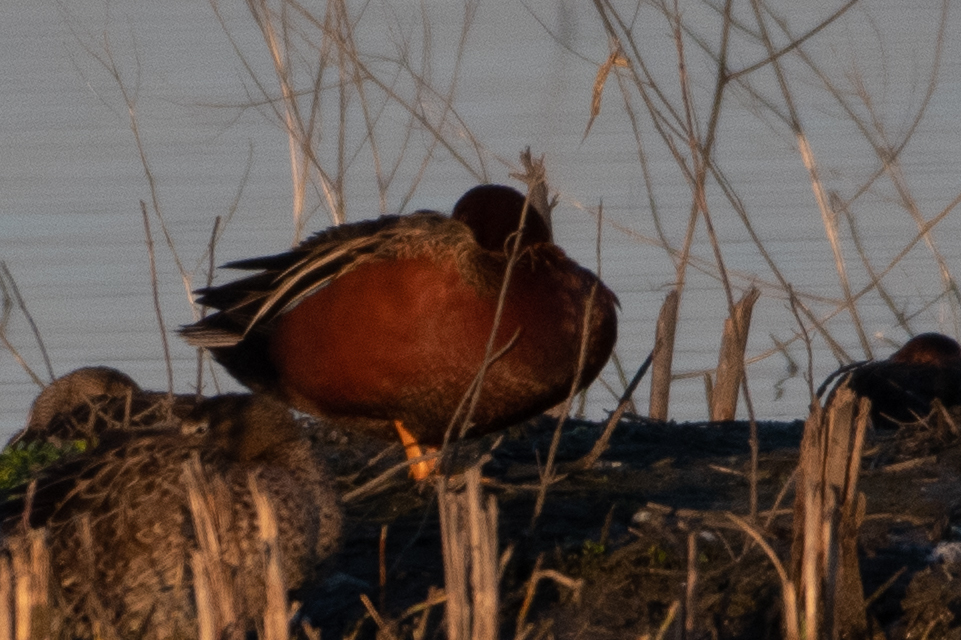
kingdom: Animalia
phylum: Chordata
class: Aves
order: Anseriformes
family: Anatidae
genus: Spatula
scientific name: Spatula cyanoptera
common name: Cinnamon teal
